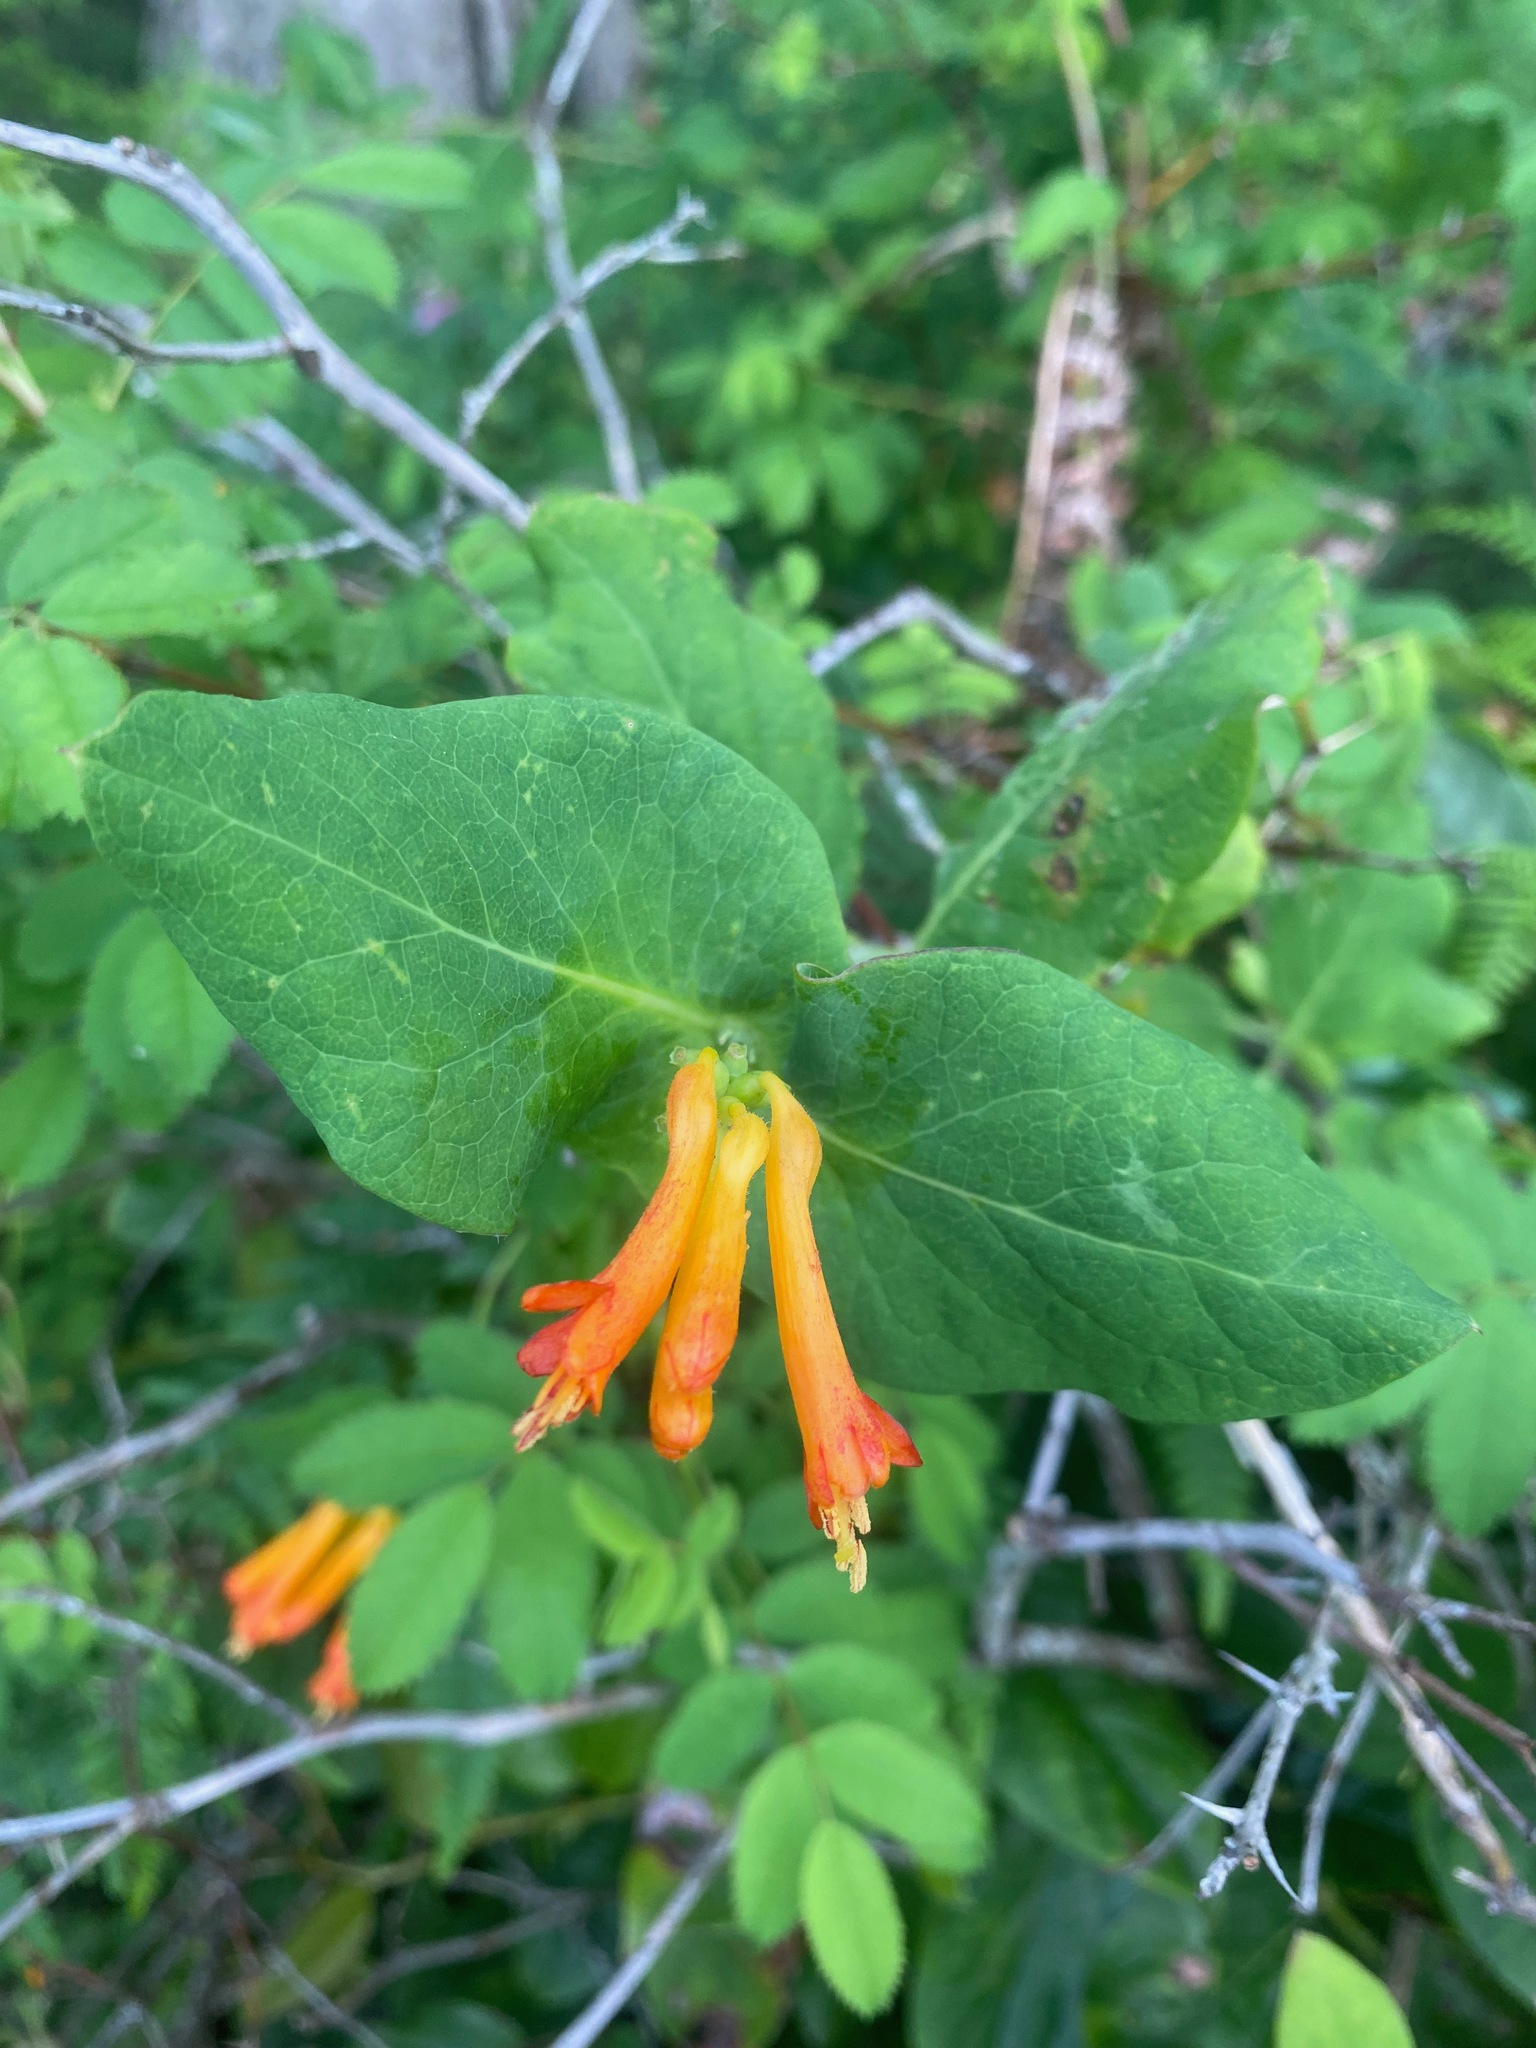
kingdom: Plantae
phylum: Tracheophyta
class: Magnoliopsida
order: Dipsacales
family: Caprifoliaceae
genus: Lonicera
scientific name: Lonicera ciliosa
